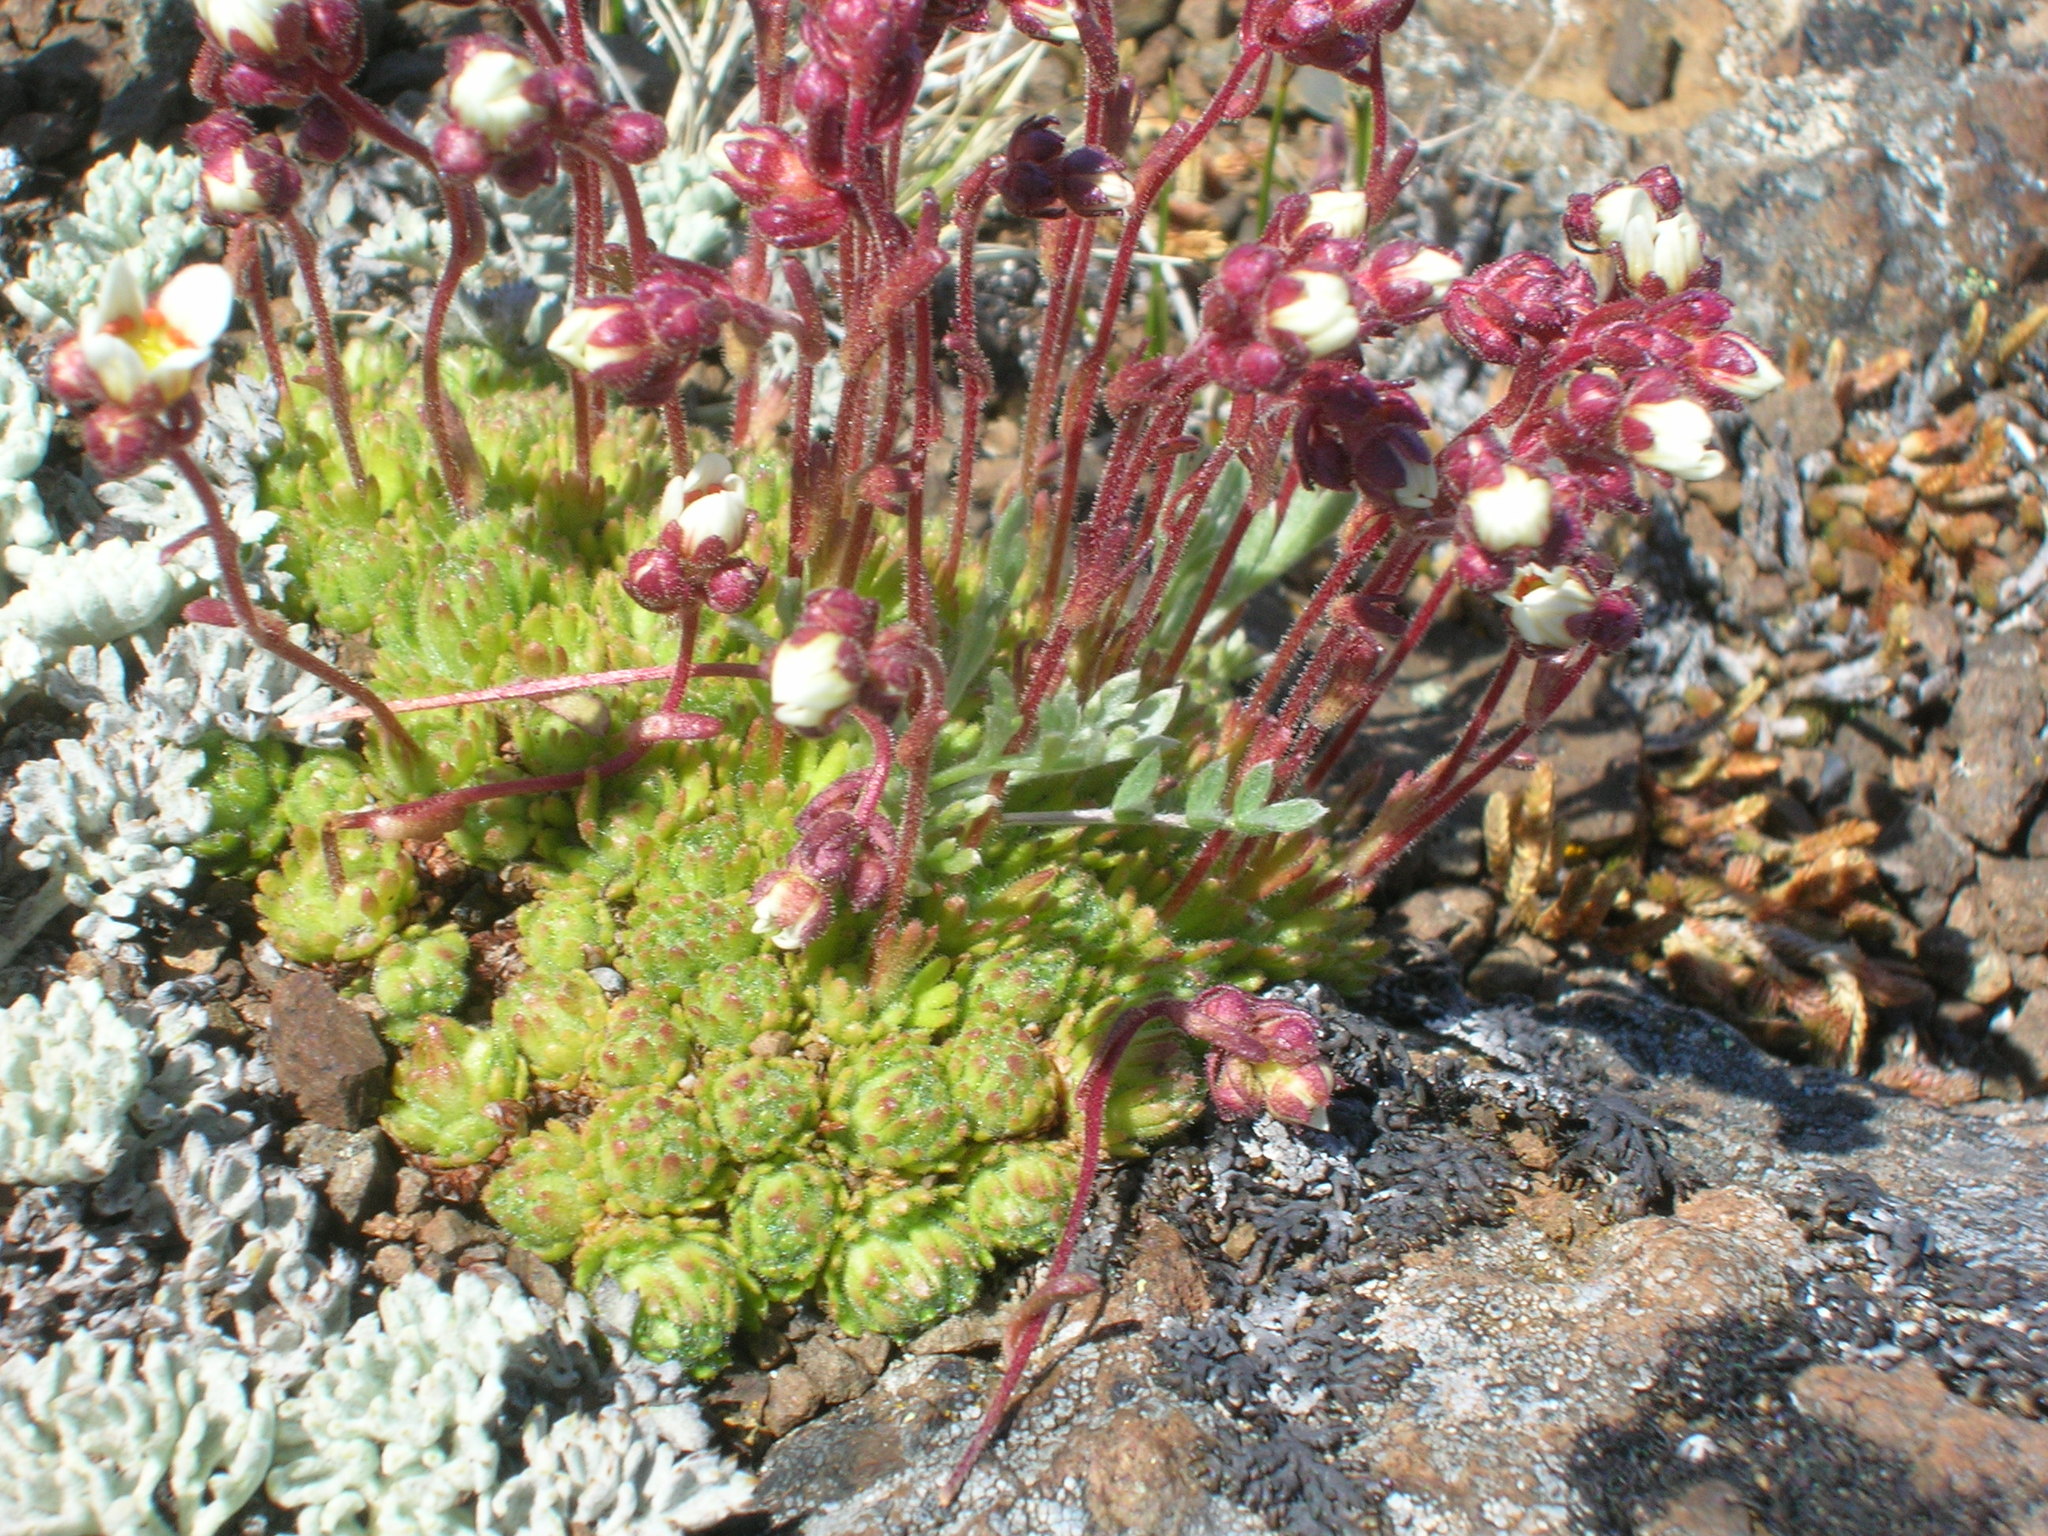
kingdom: Plantae
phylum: Tracheophyta
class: Magnoliopsida
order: Saxifragales
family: Saxifragaceae
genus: Saxifraga
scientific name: Saxifraga cespitosa
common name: Tufted saxifrage
